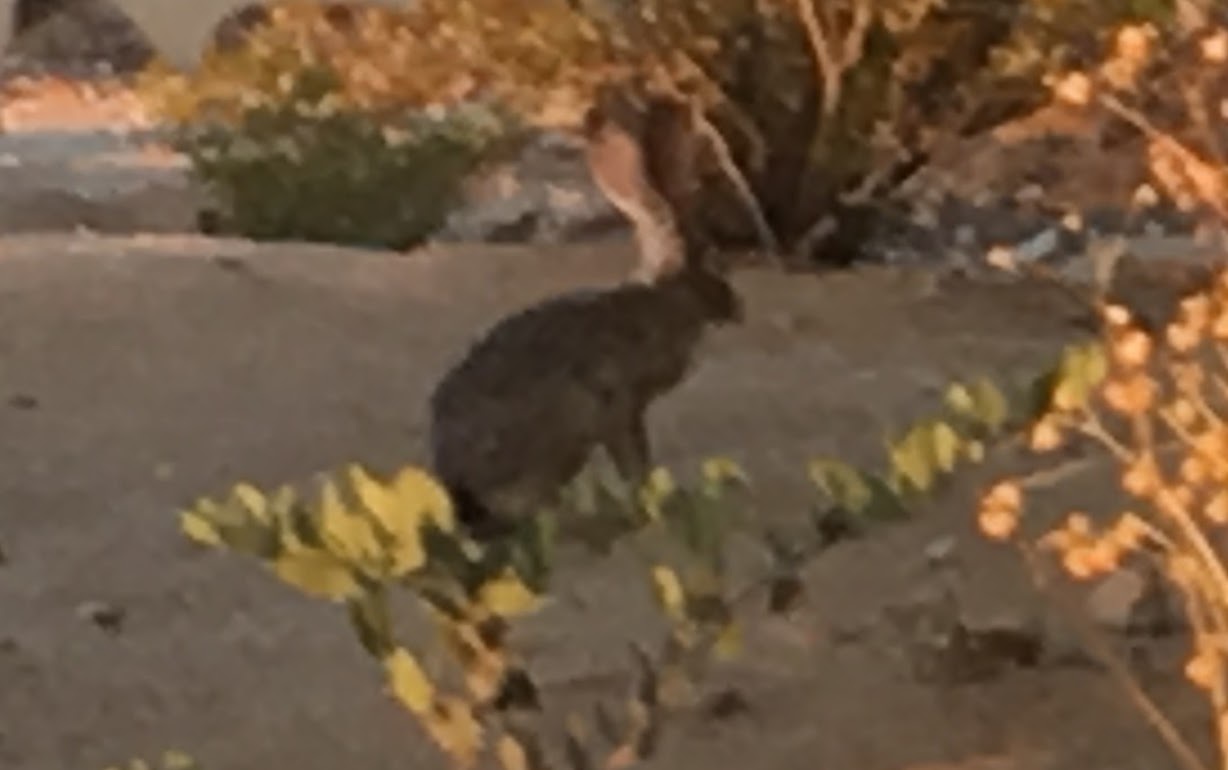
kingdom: Animalia
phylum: Chordata
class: Mammalia
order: Lagomorpha
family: Leporidae
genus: Lepus
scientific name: Lepus californicus
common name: Black-tailed jackrabbit
